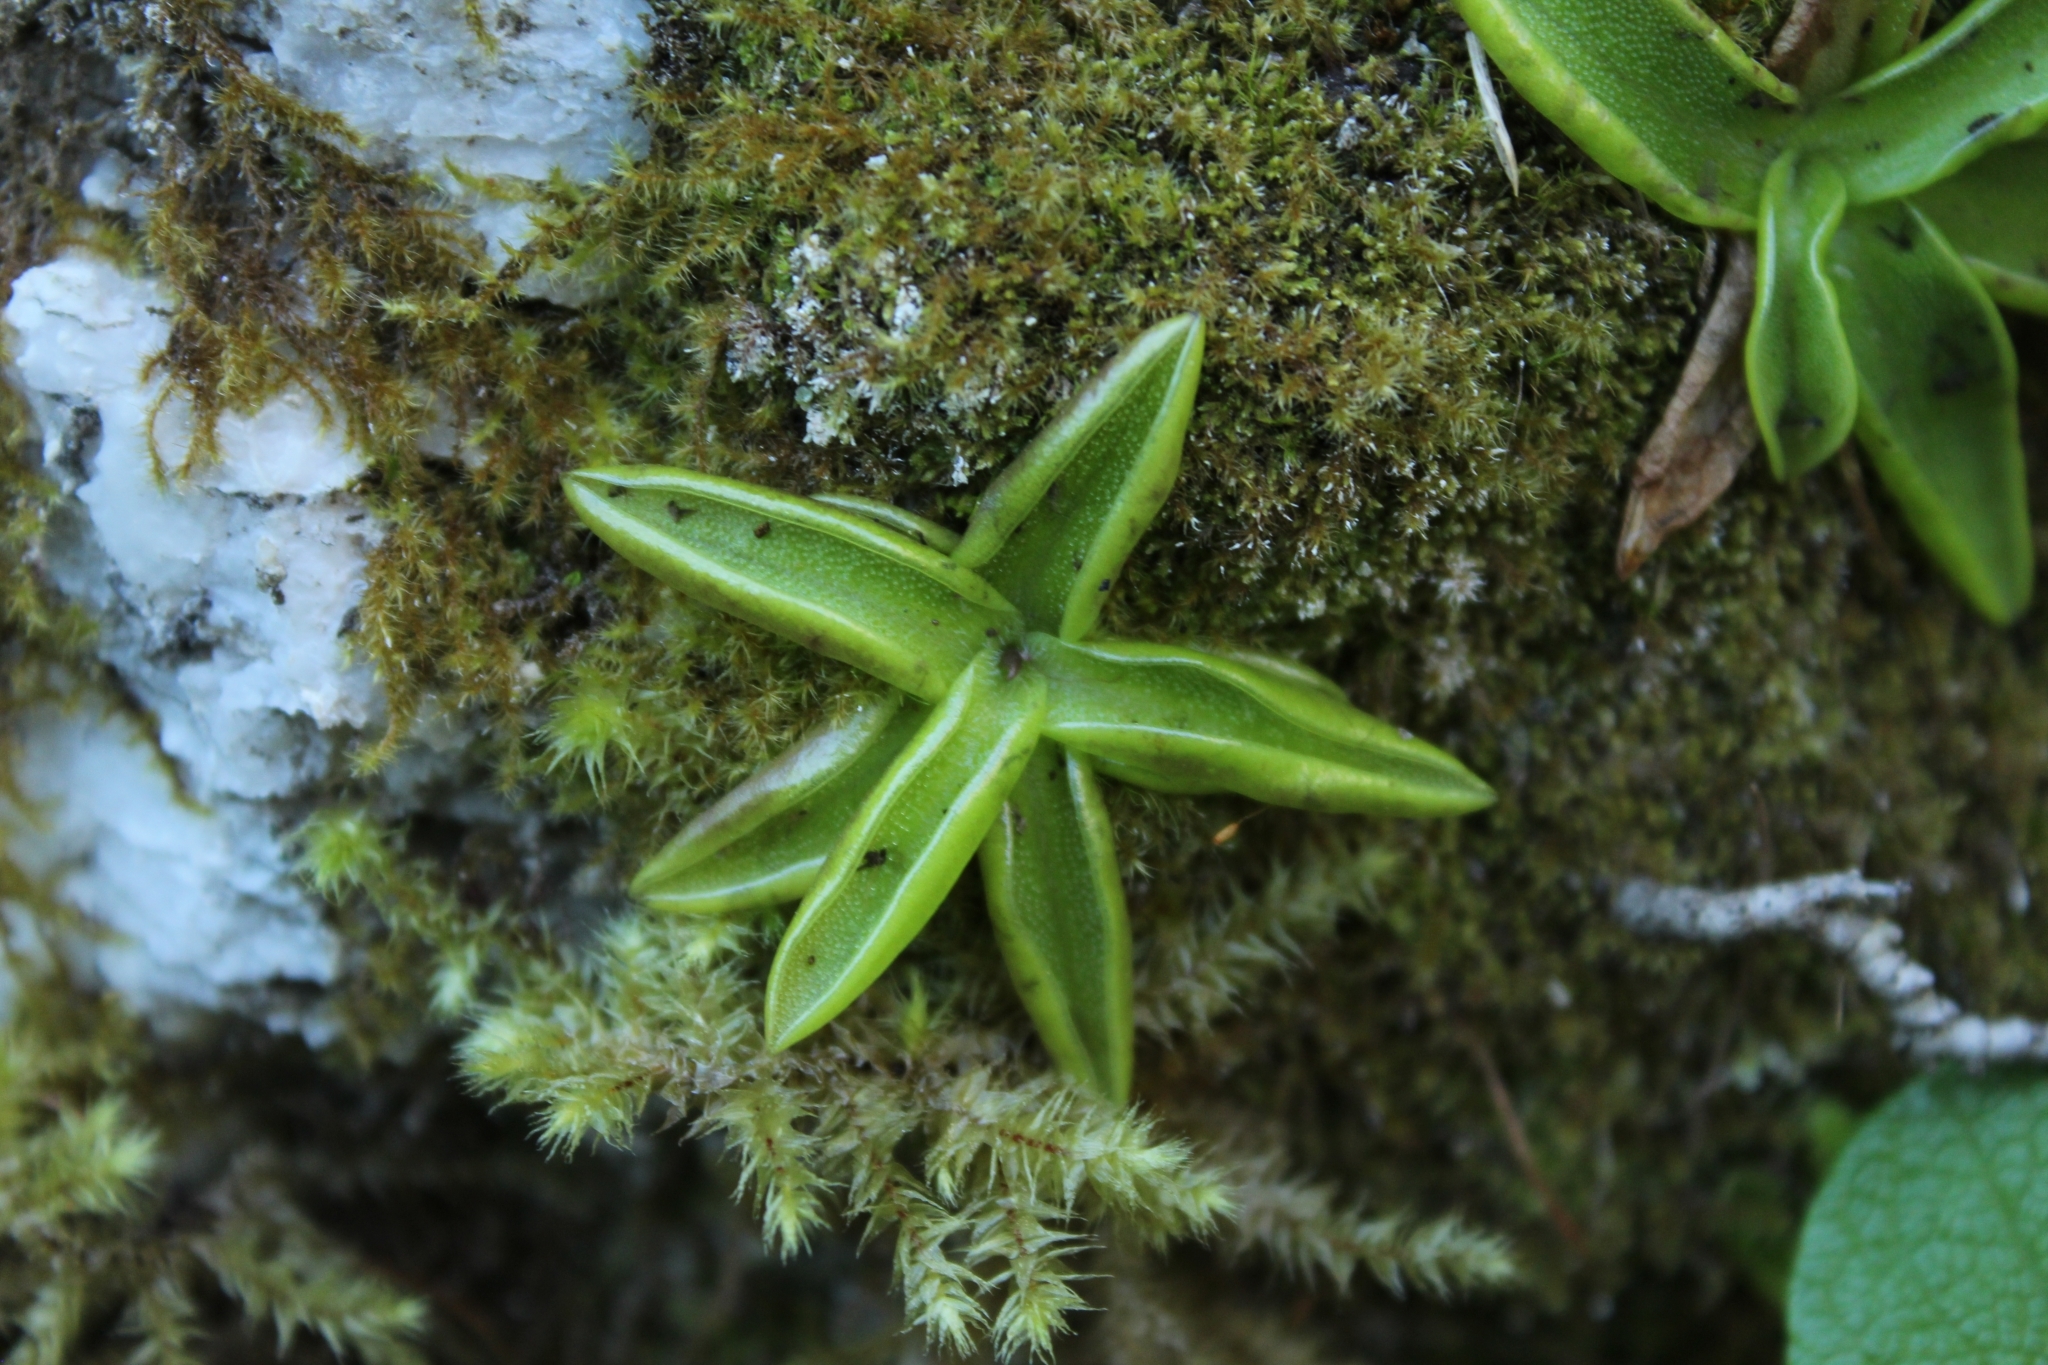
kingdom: Plantae
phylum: Tracheophyta
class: Magnoliopsida
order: Lamiales
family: Lentibulariaceae
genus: Pinguicula
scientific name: Pinguicula alpina
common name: Alpine butterwort
